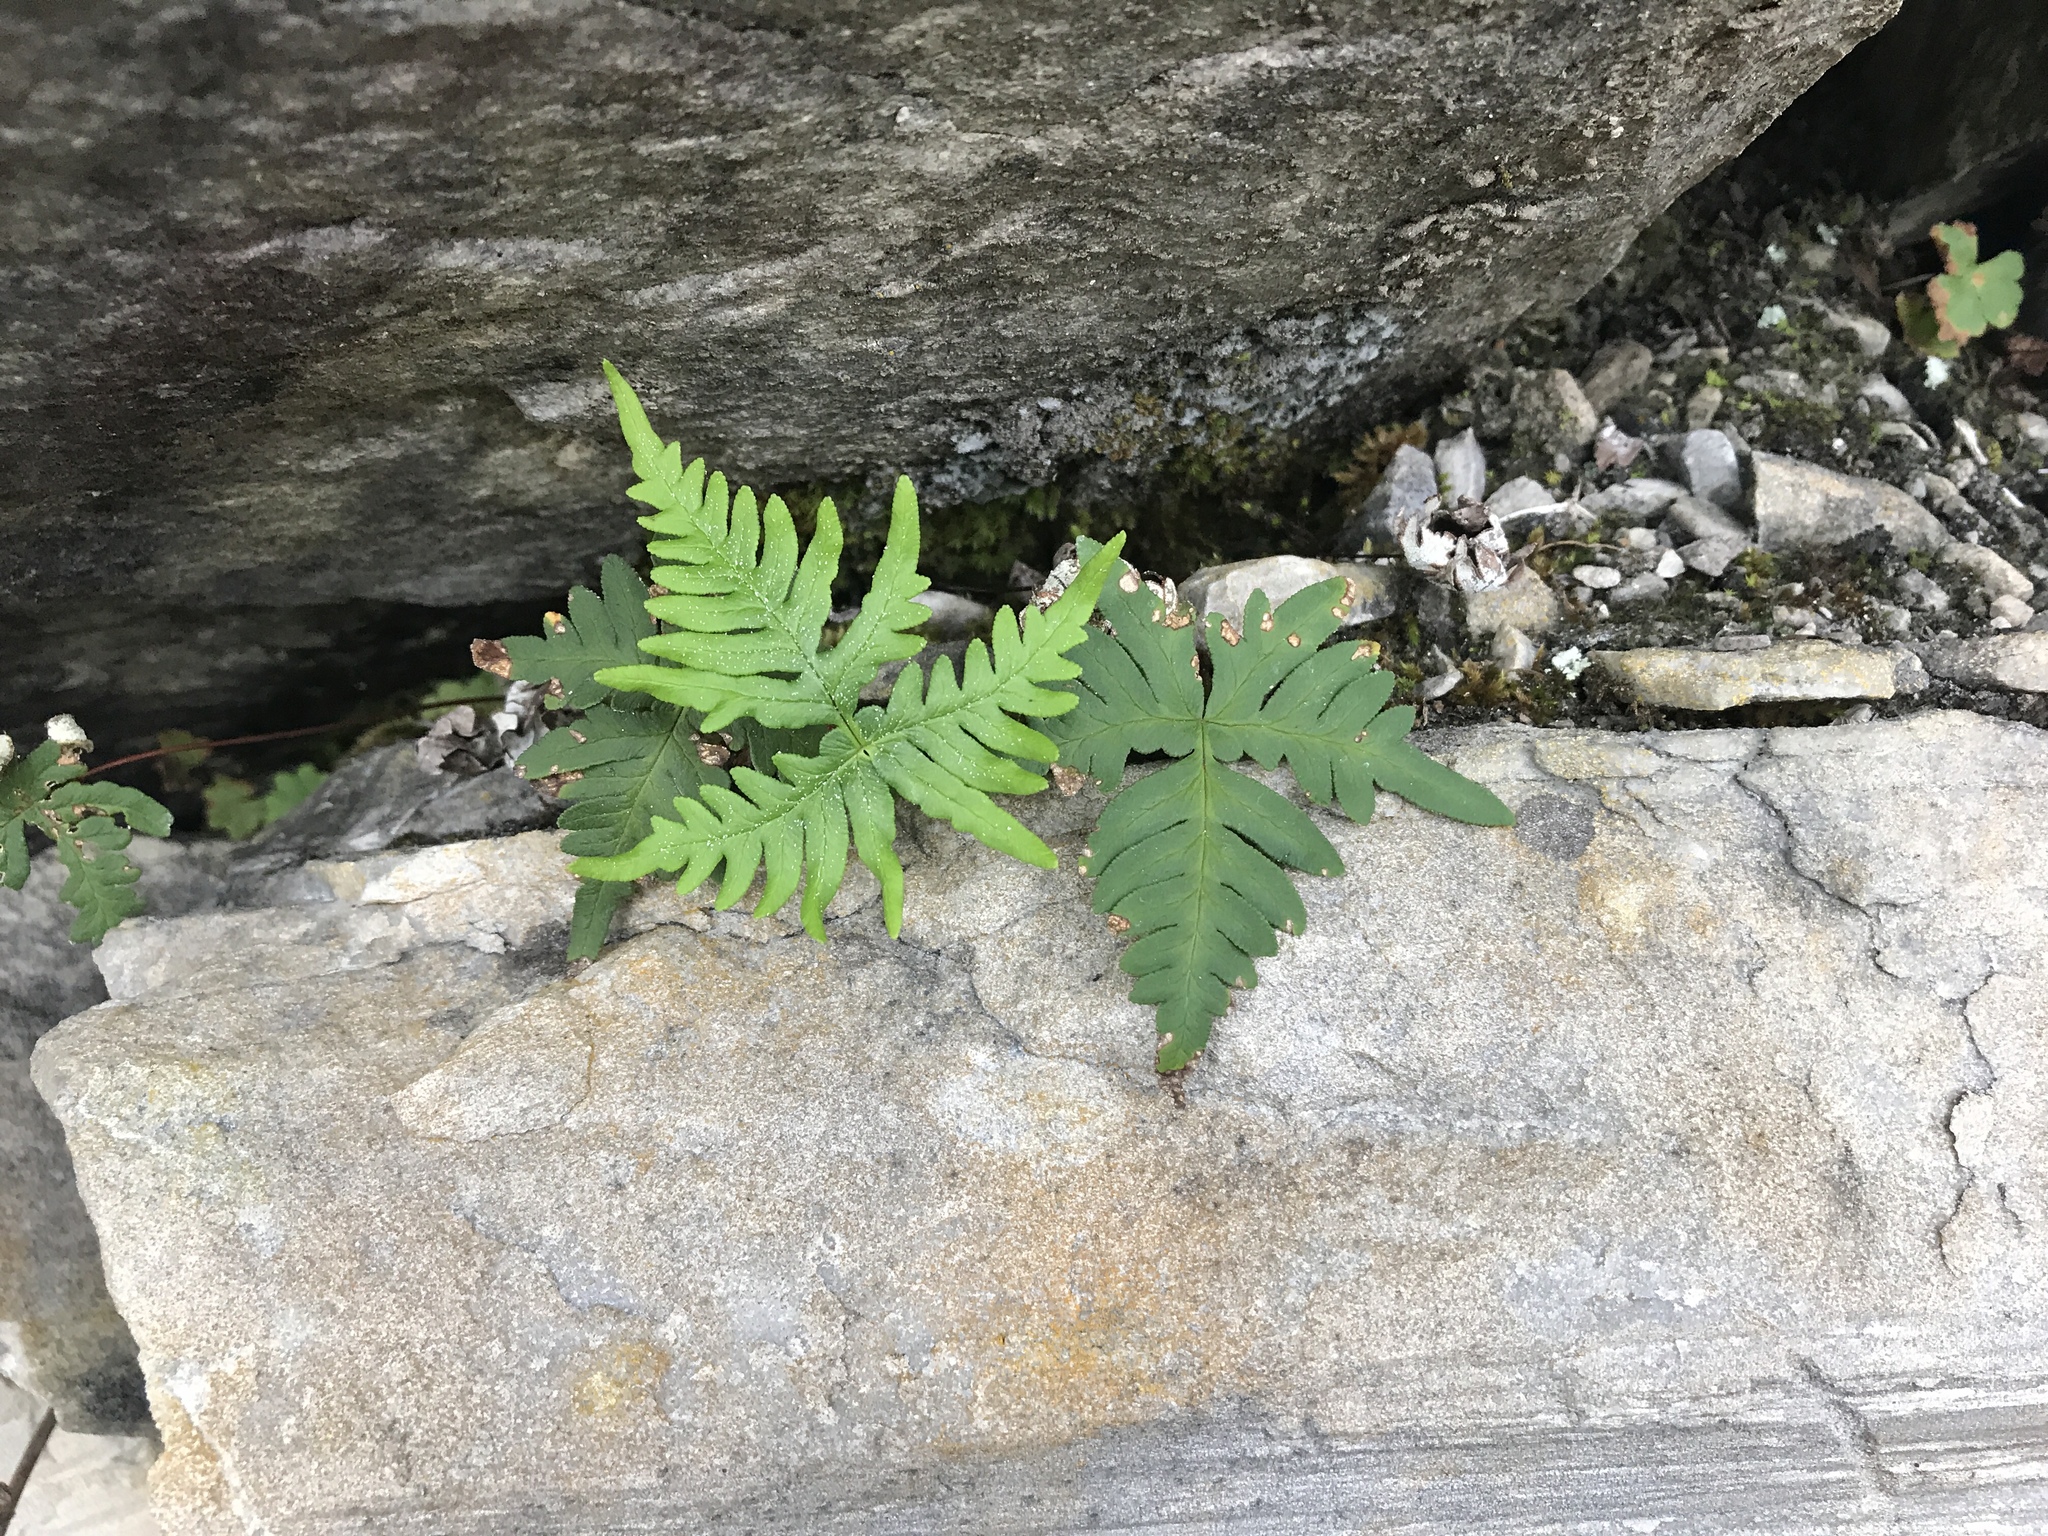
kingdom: Plantae
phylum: Tracheophyta
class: Polypodiopsida
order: Polypodiales
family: Pteridaceae
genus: Aleuritopteris
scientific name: Aleuritopteris argentea
